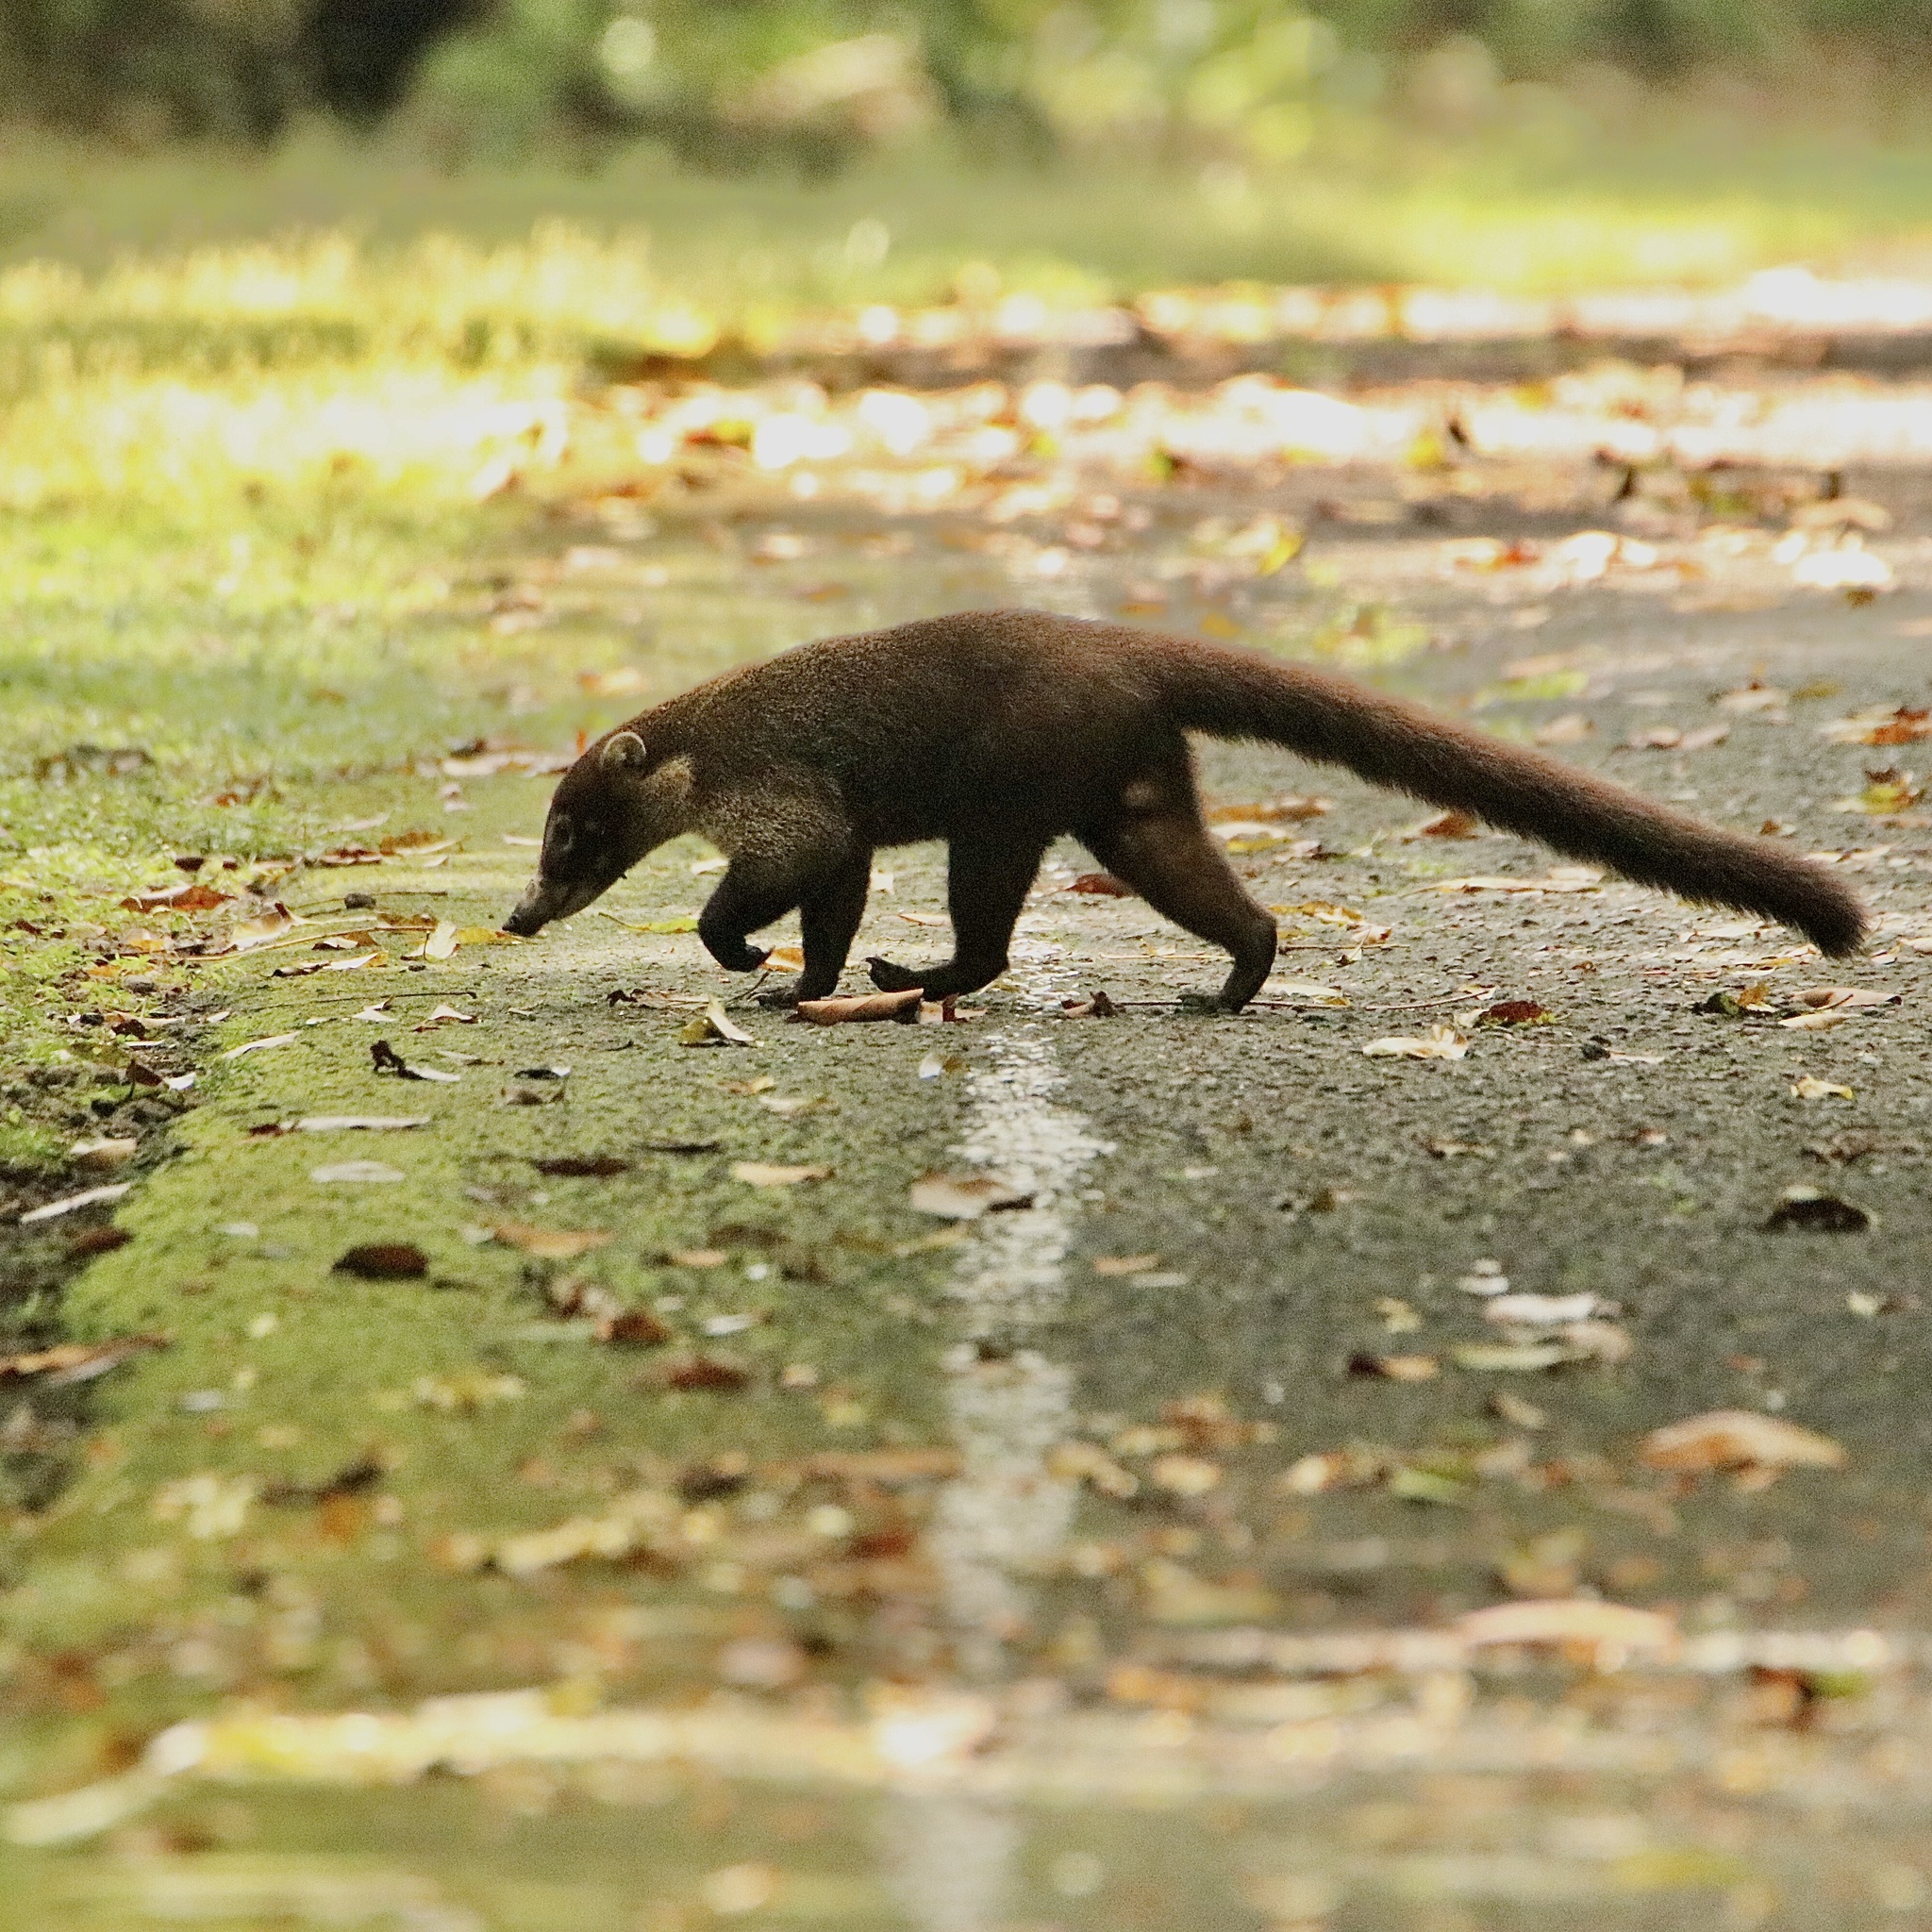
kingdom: Animalia
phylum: Chordata
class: Mammalia
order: Carnivora
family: Procyonidae
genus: Nasua
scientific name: Nasua narica
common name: White-nosed coati
